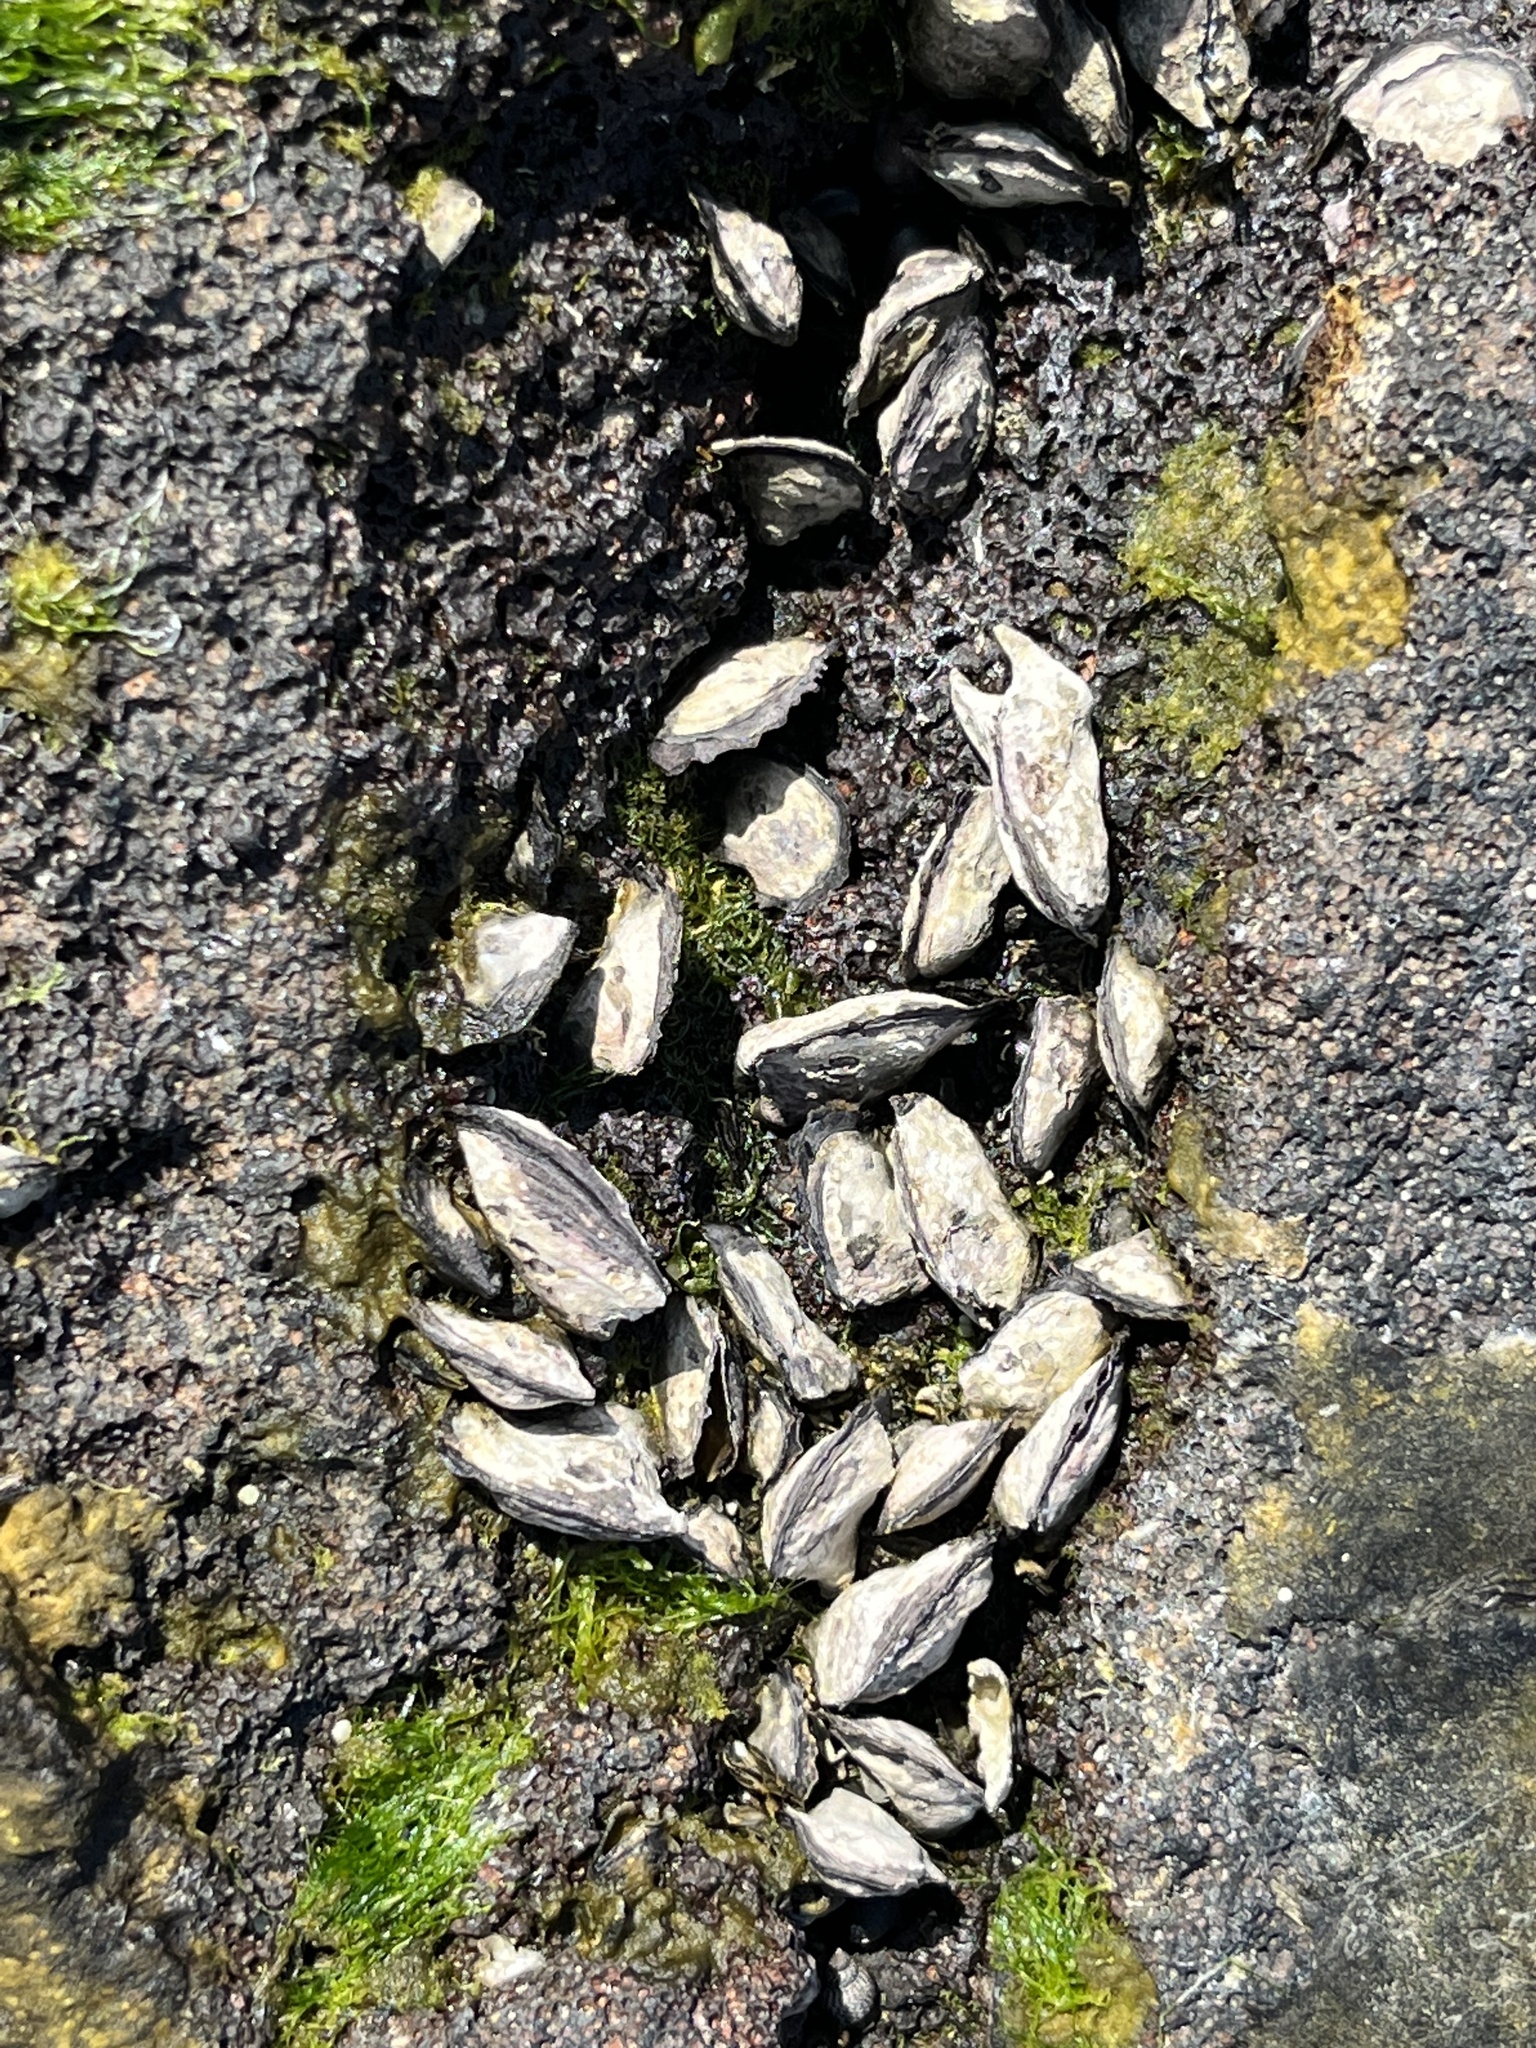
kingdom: Animalia
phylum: Mollusca
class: Bivalvia
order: Ostreida
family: Isognomonidae
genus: Isognomon
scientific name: Isognomon californicus
